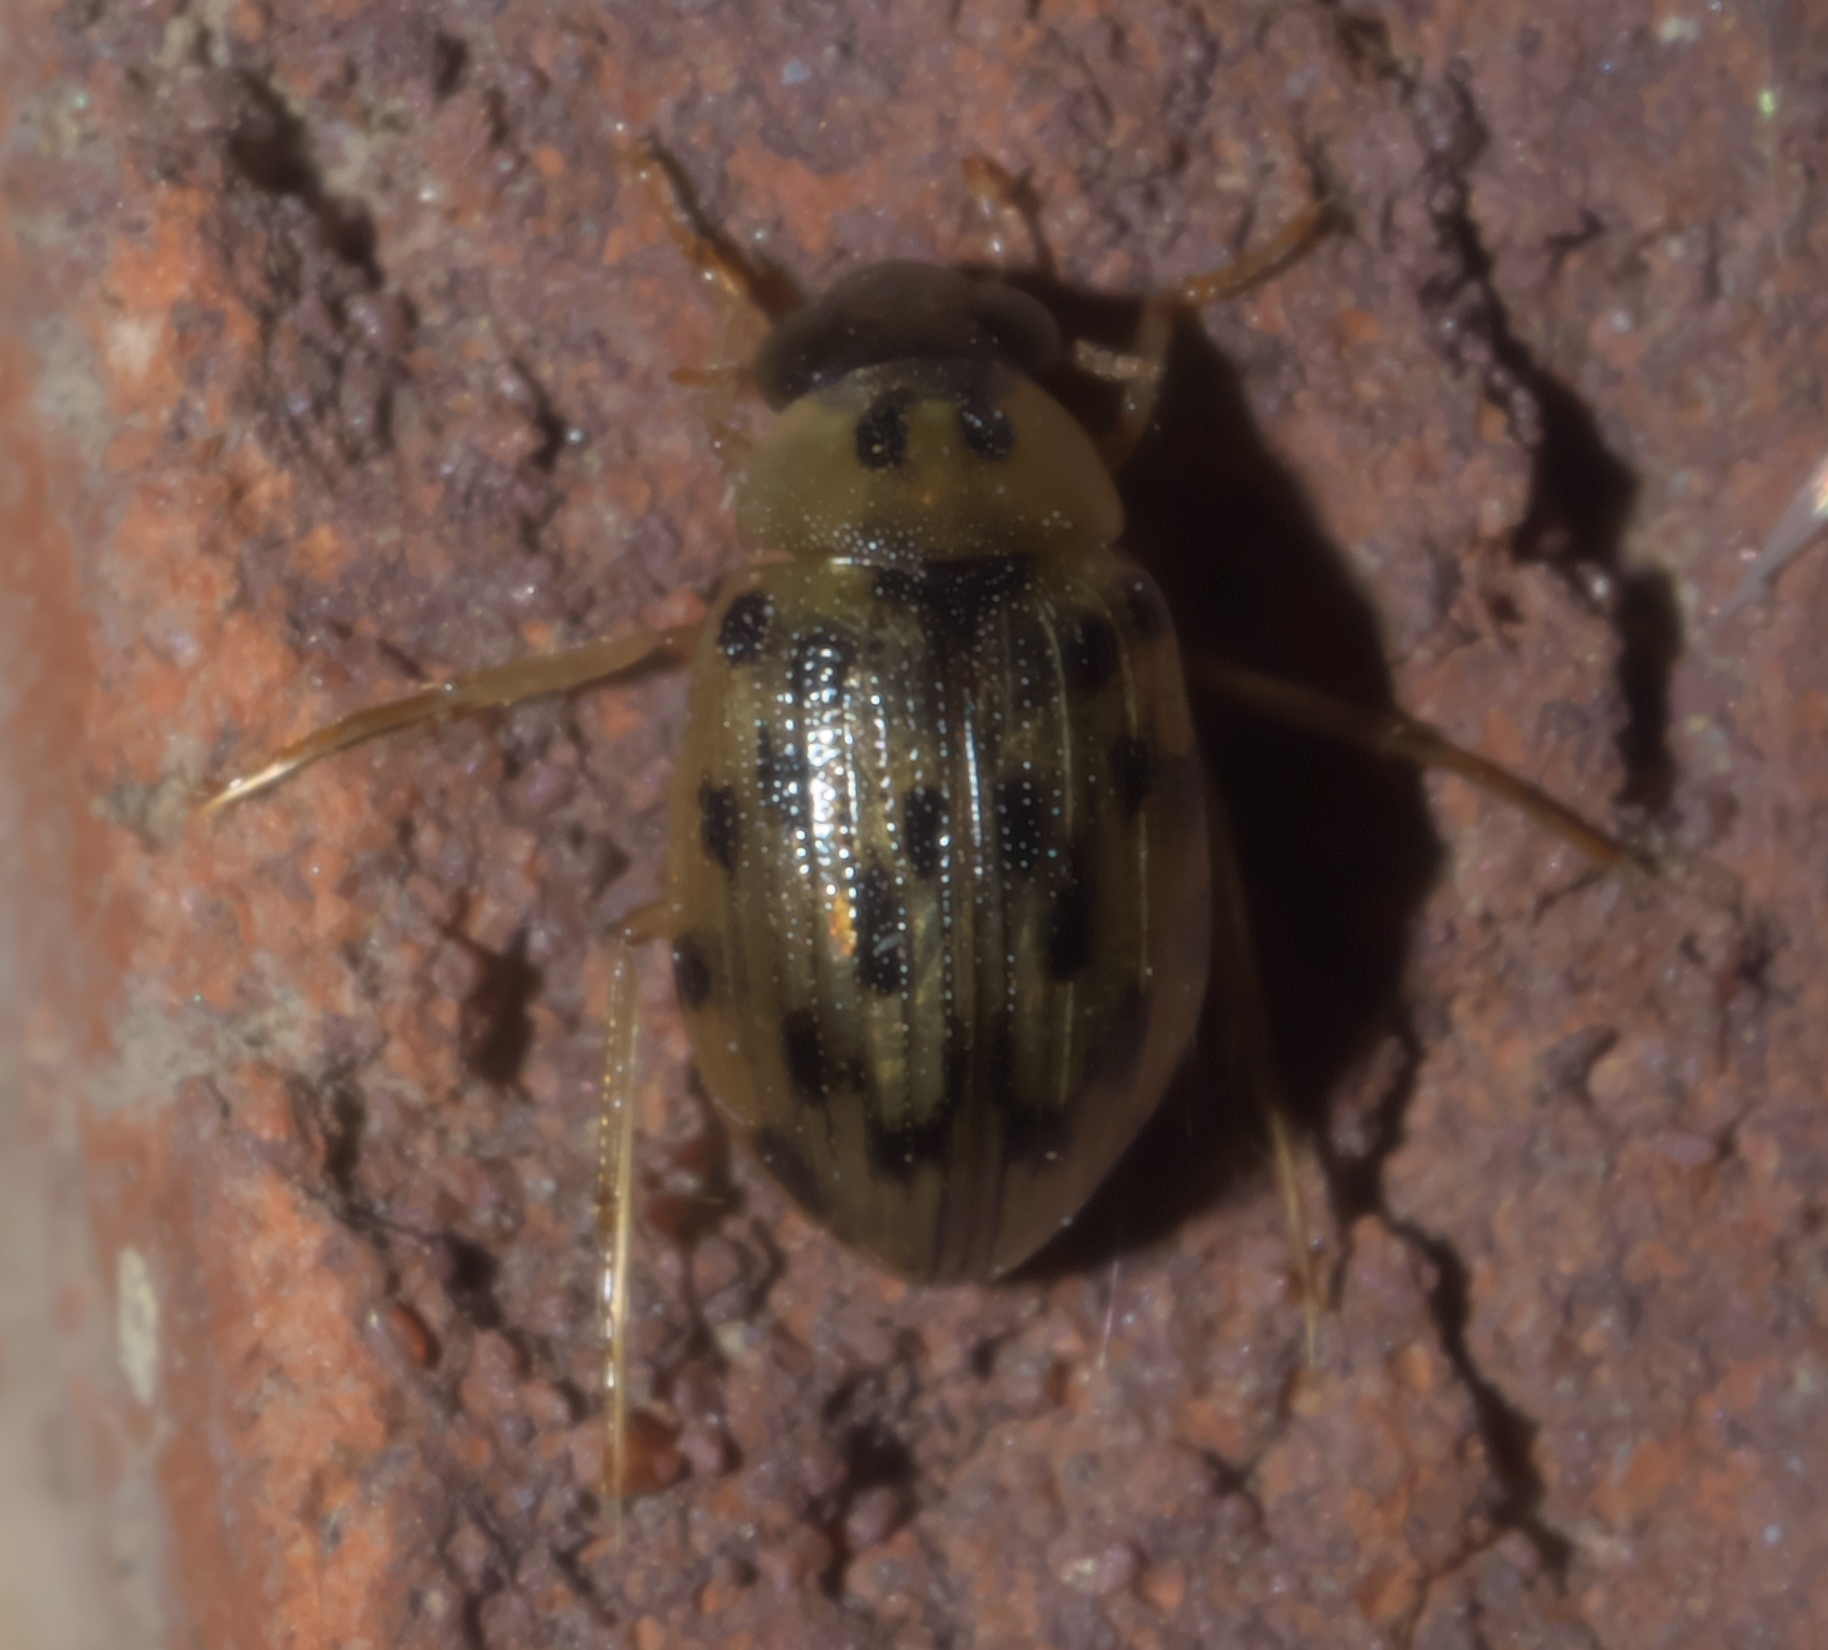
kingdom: Animalia
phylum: Arthropoda
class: Insecta
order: Coleoptera
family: Hydrophilidae
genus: Berosus
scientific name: Berosus pantherinus
